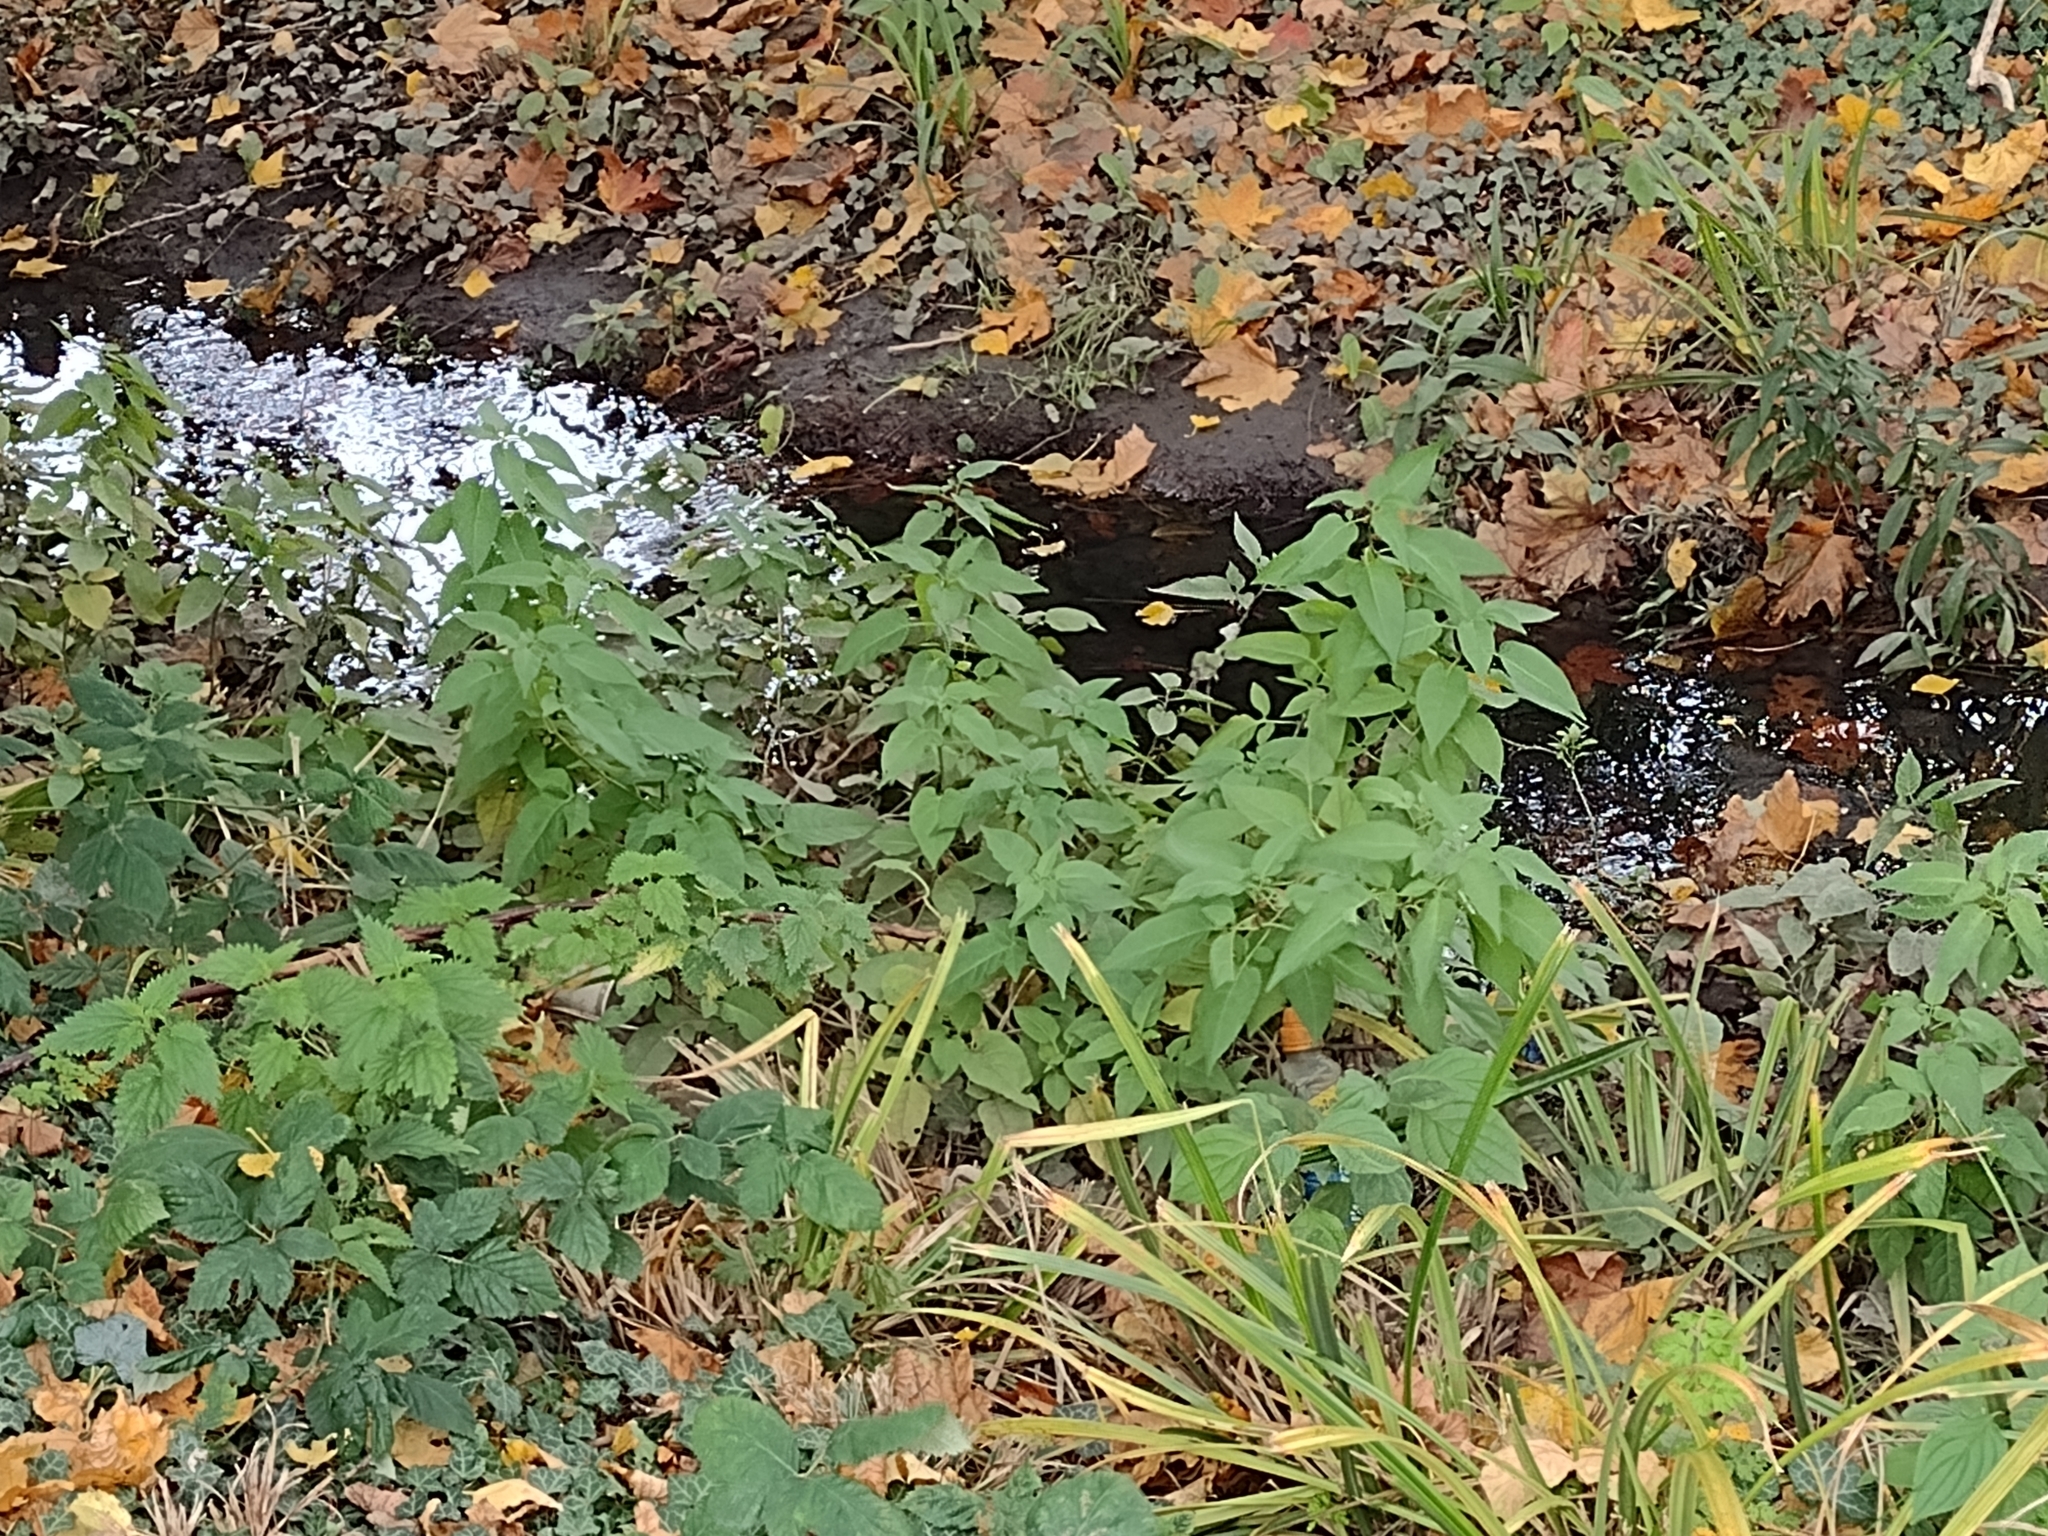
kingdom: Plantae
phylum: Tracheophyta
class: Magnoliopsida
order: Solanales
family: Solanaceae
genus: Solanum
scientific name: Solanum dulcamara
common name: Climbing nightshade
